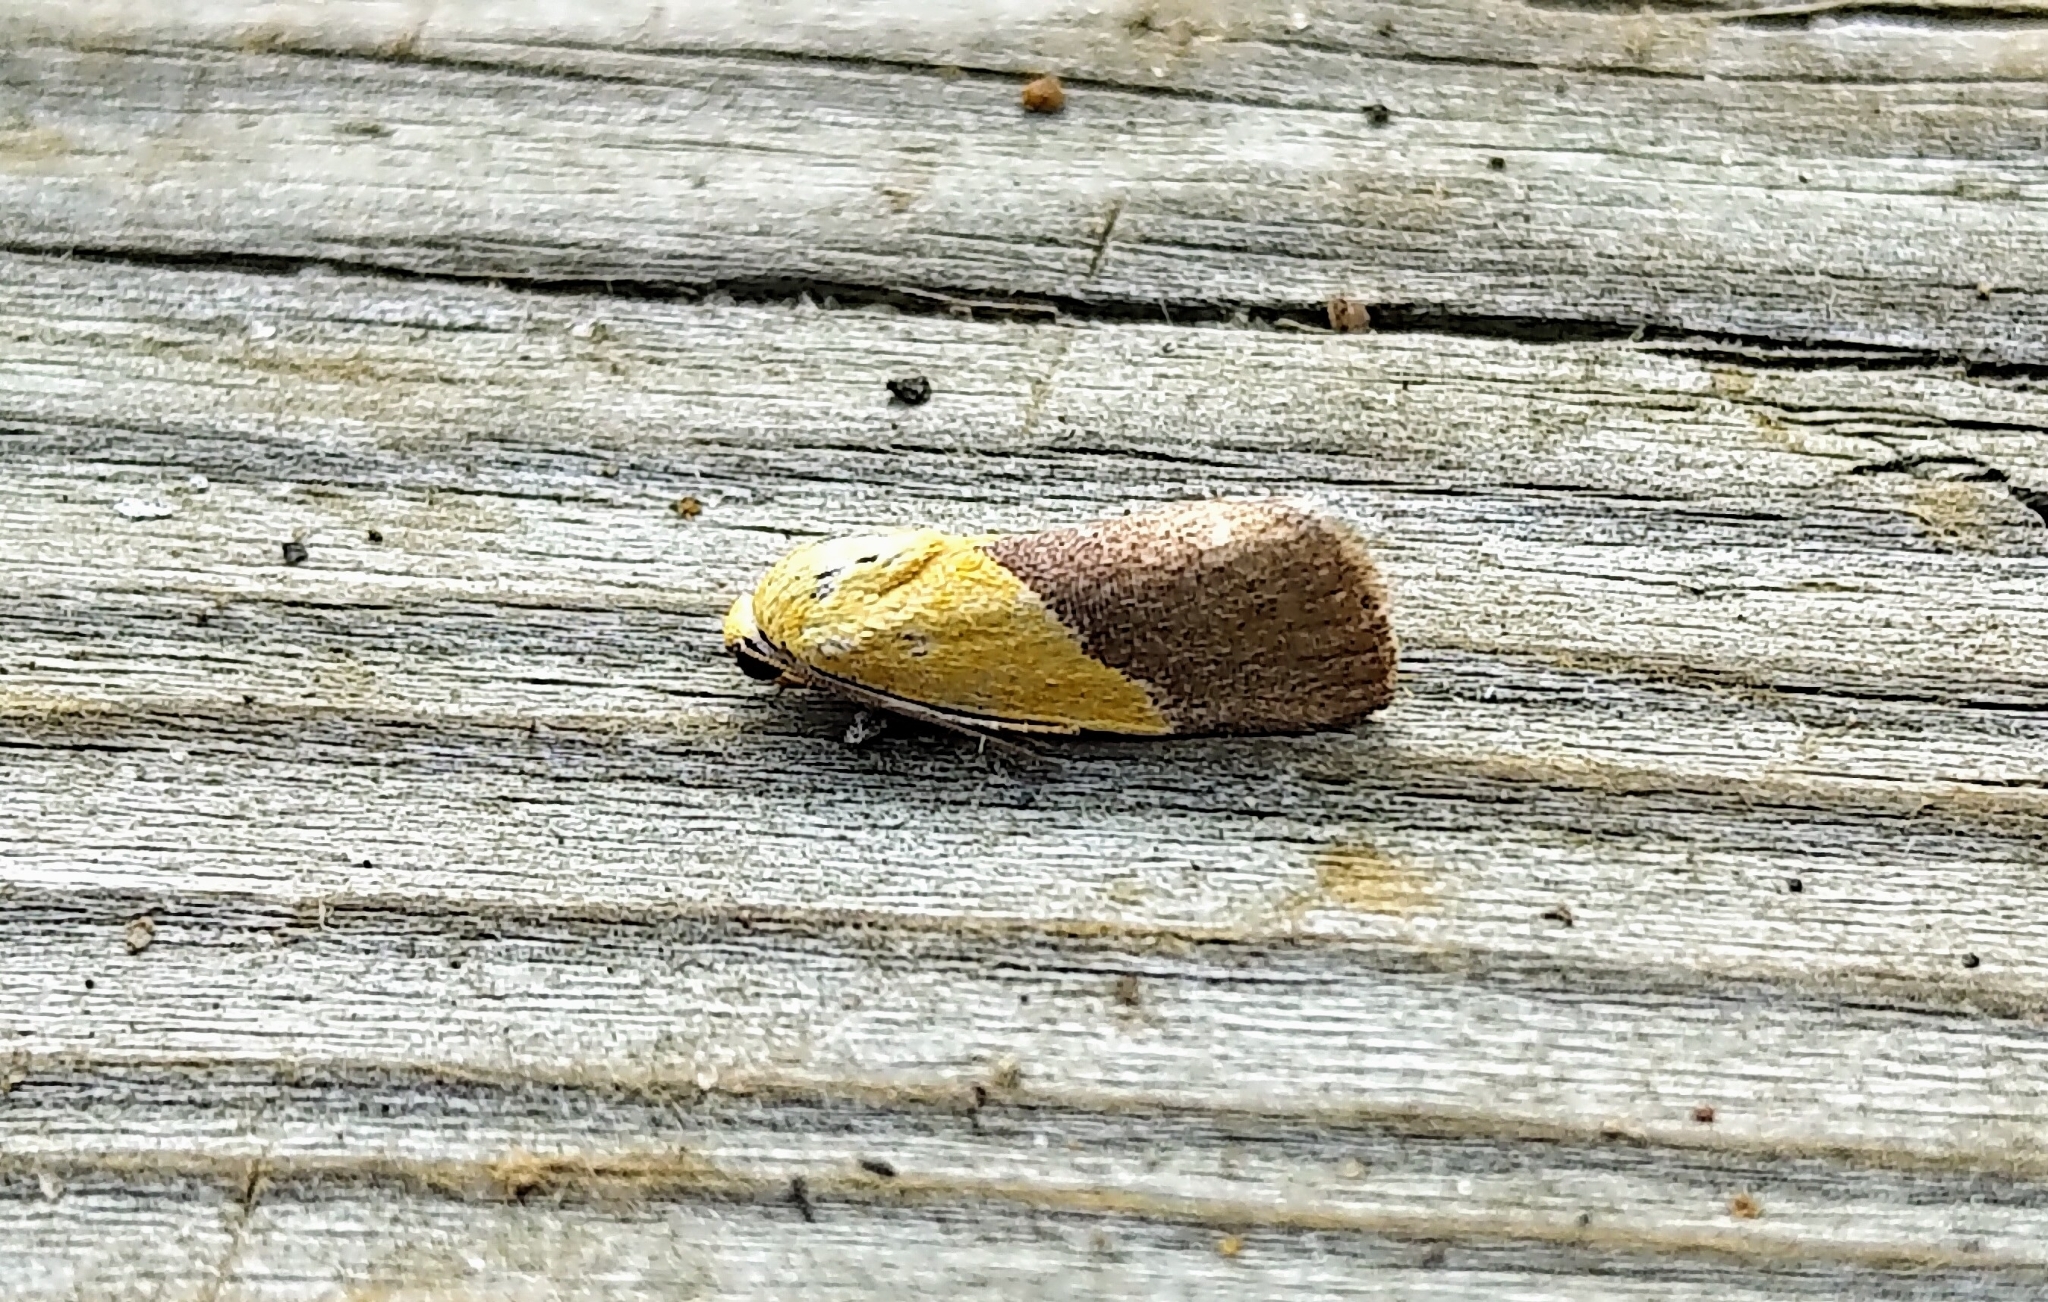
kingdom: Animalia
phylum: Arthropoda
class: Insecta
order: Lepidoptera
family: Noctuidae
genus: Acontia
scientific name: Acontia semiflava
